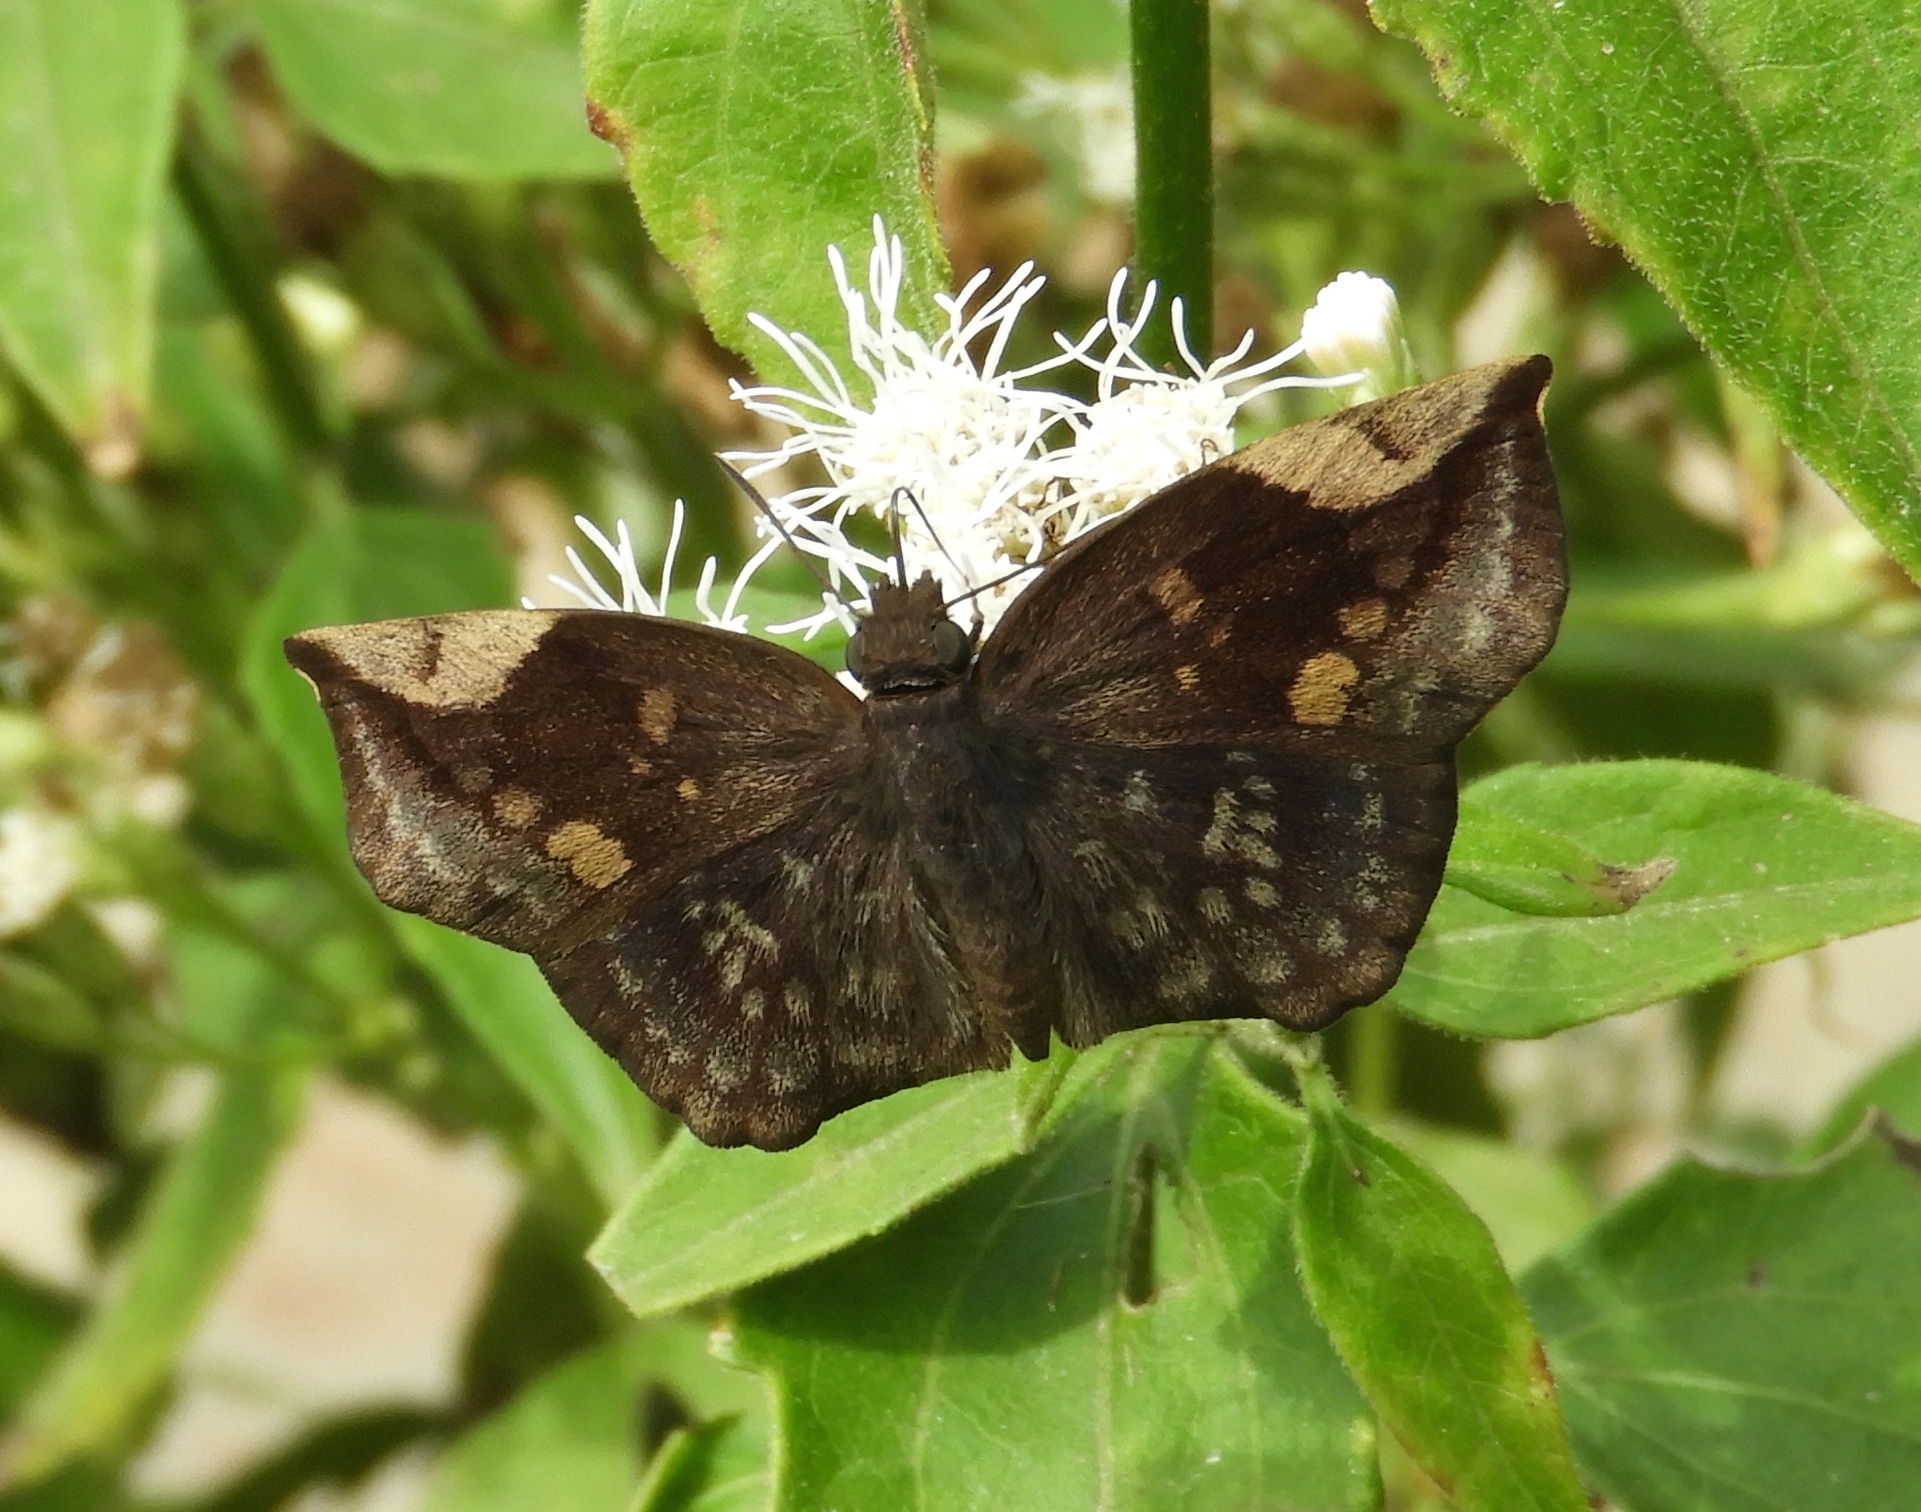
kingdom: Animalia
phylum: Arthropoda
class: Insecta
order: Lepidoptera
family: Hesperiidae
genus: Achlyodes
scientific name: Achlyodes thraso
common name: Sickle-winged skipper
